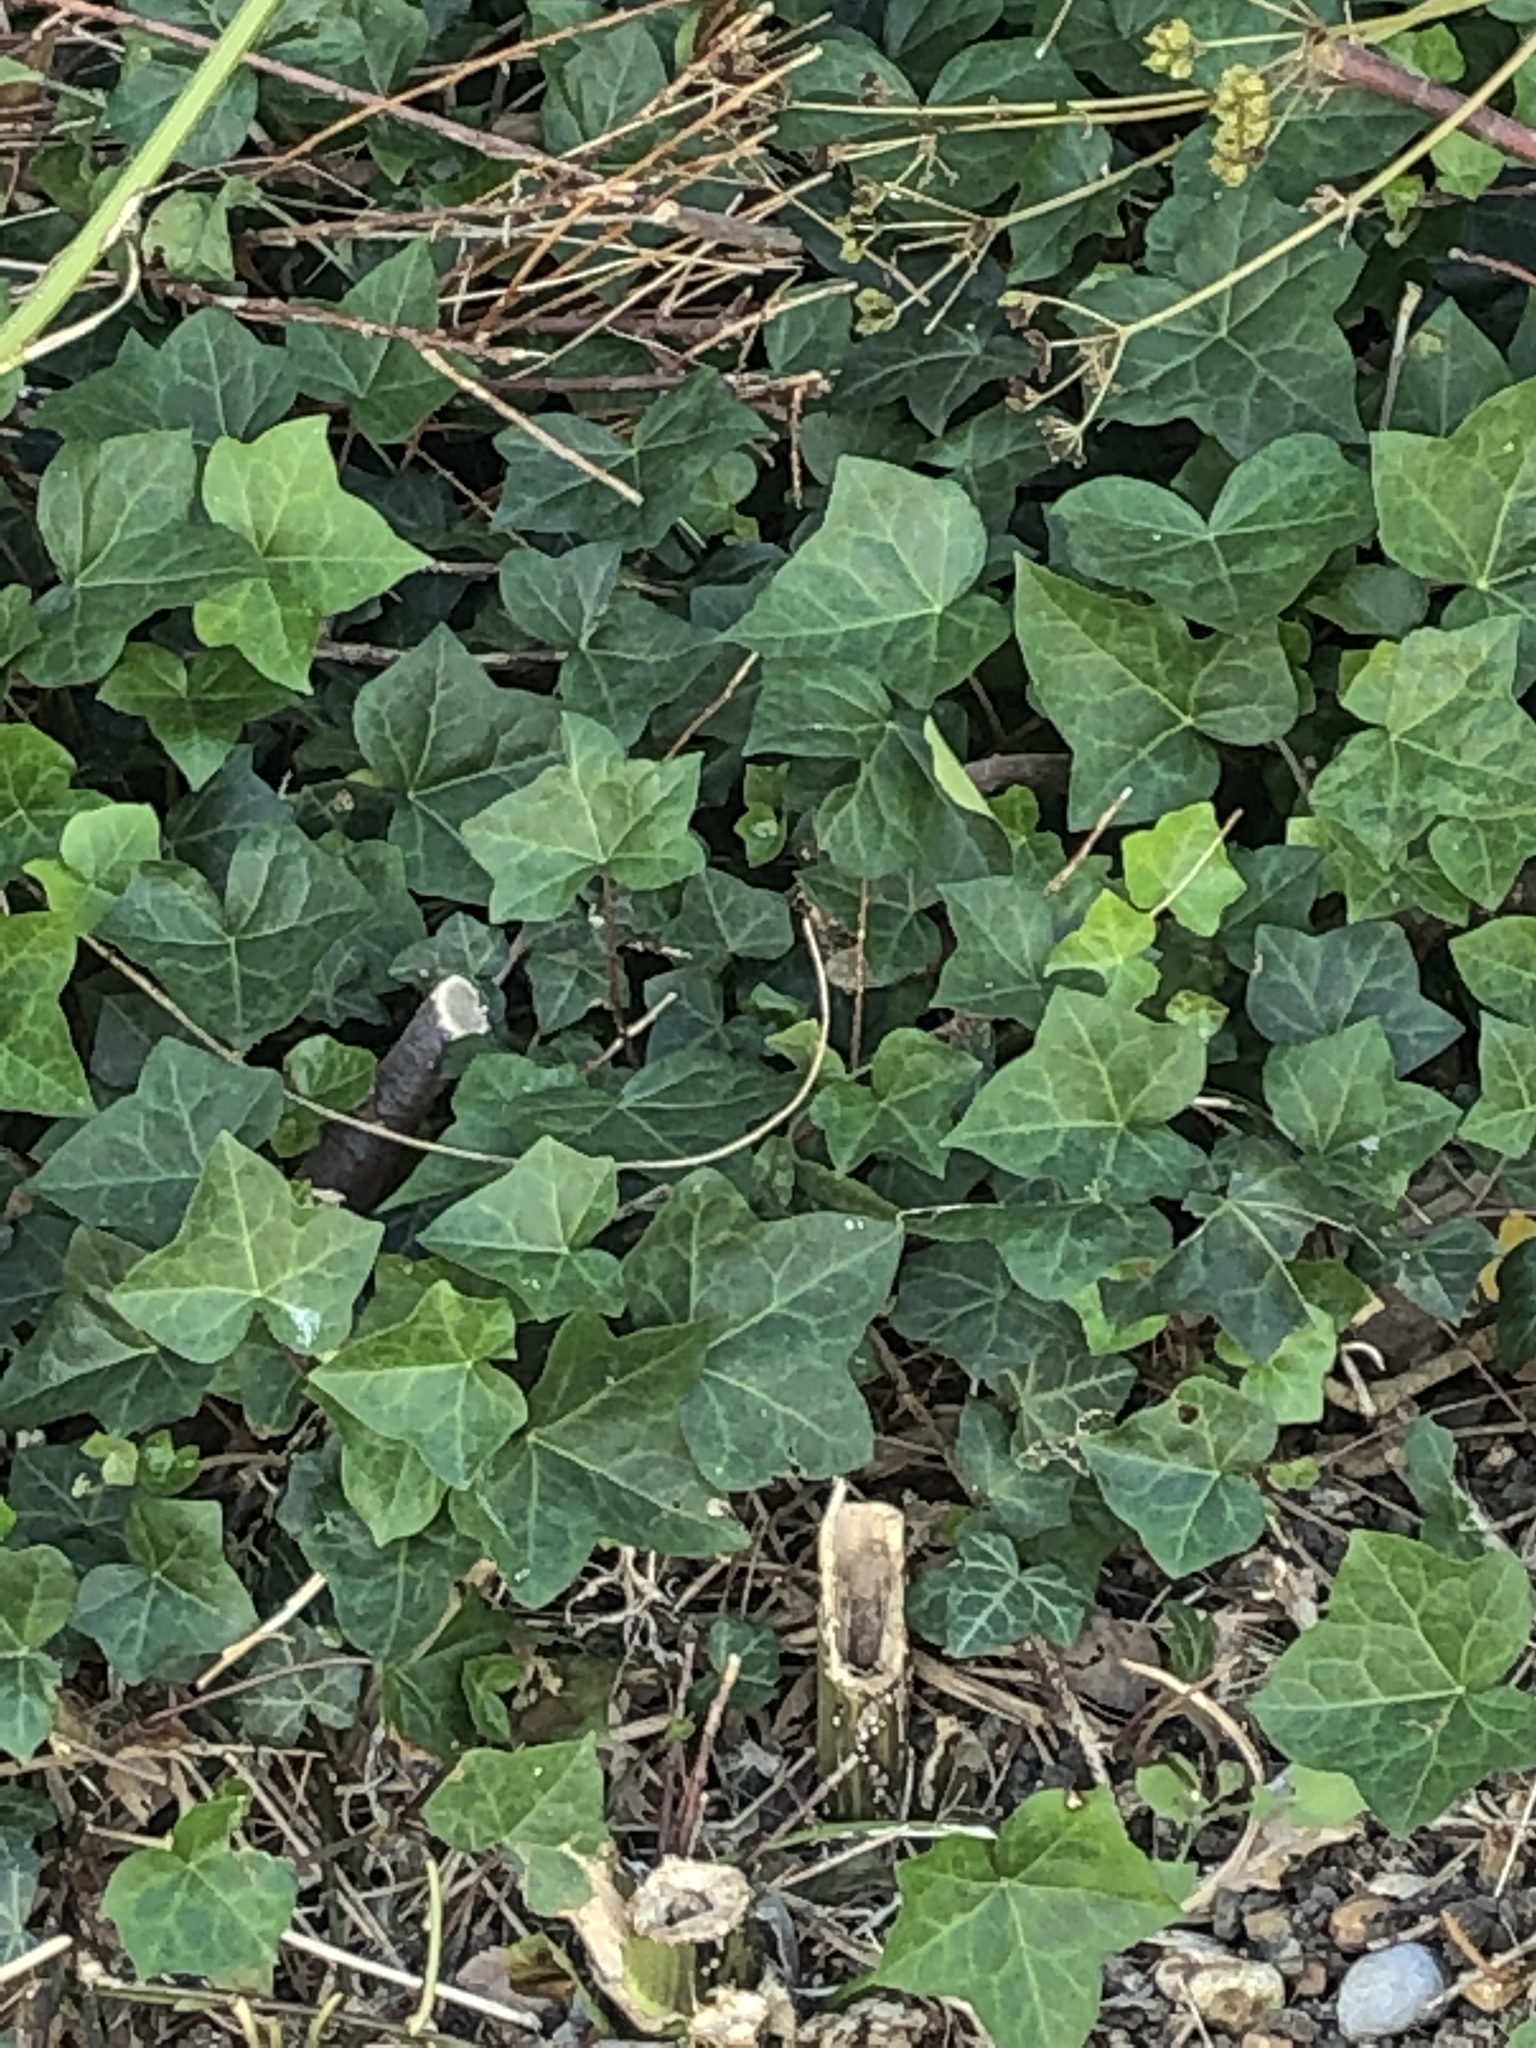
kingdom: Plantae
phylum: Tracheophyta
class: Magnoliopsida
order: Apiales
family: Araliaceae
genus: Hedera
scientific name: Hedera helix
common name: Ivy
